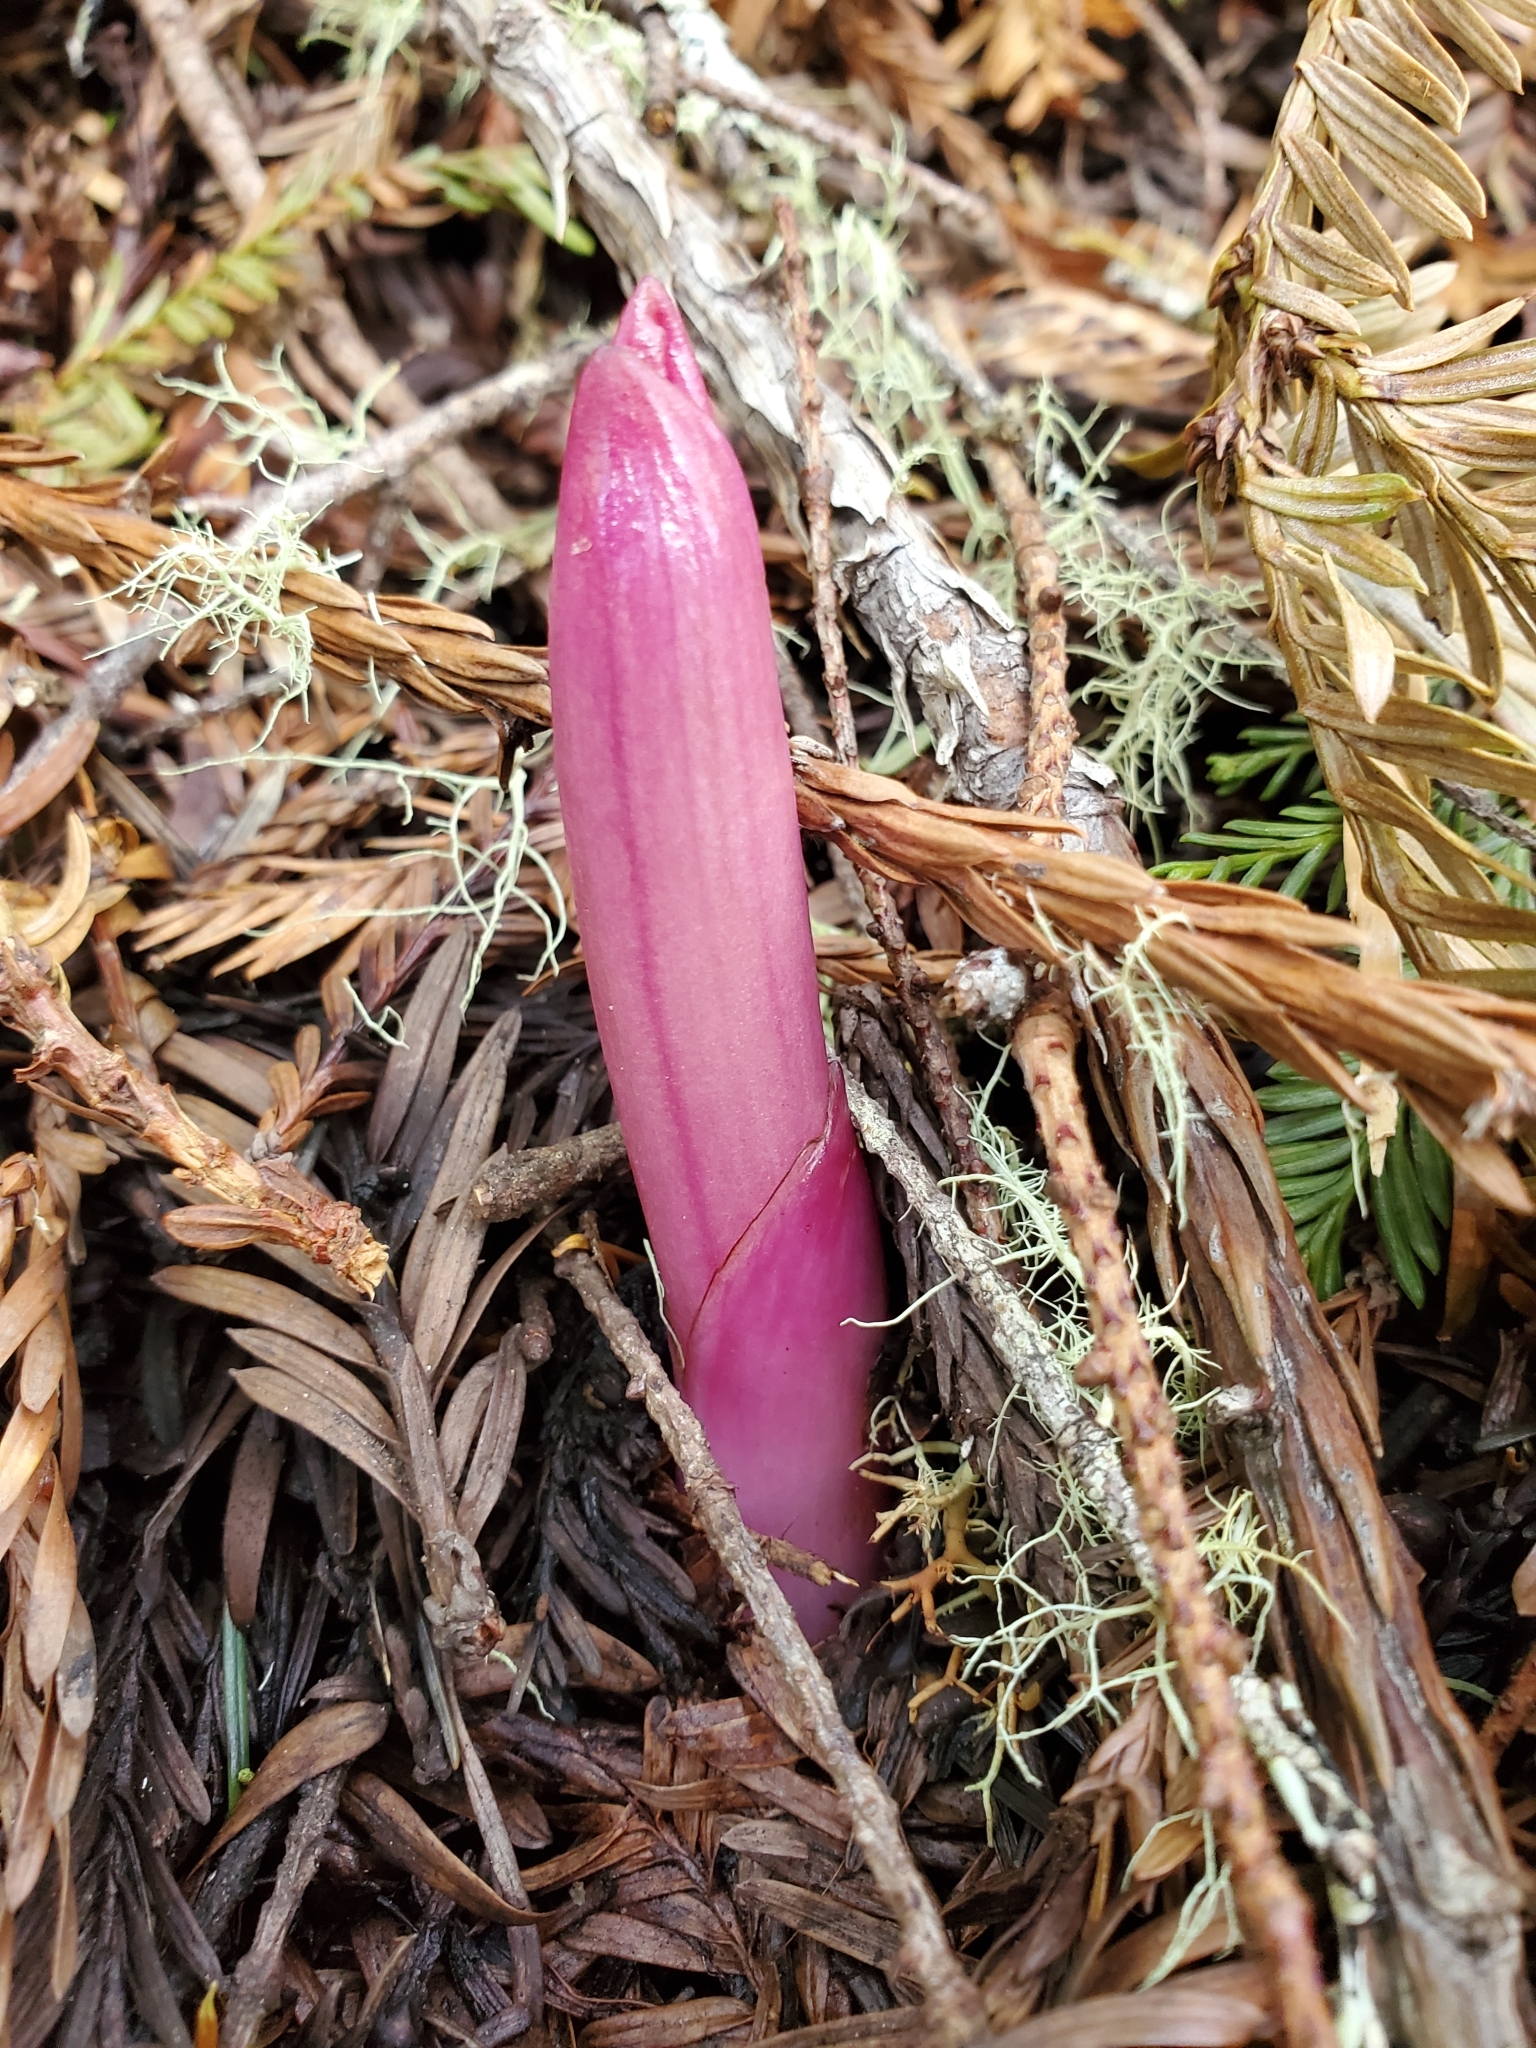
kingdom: Plantae
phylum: Tracheophyta
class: Liliopsida
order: Asparagales
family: Orchidaceae
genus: Corallorhiza
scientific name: Corallorhiza maculata
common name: Spotted coralroot
